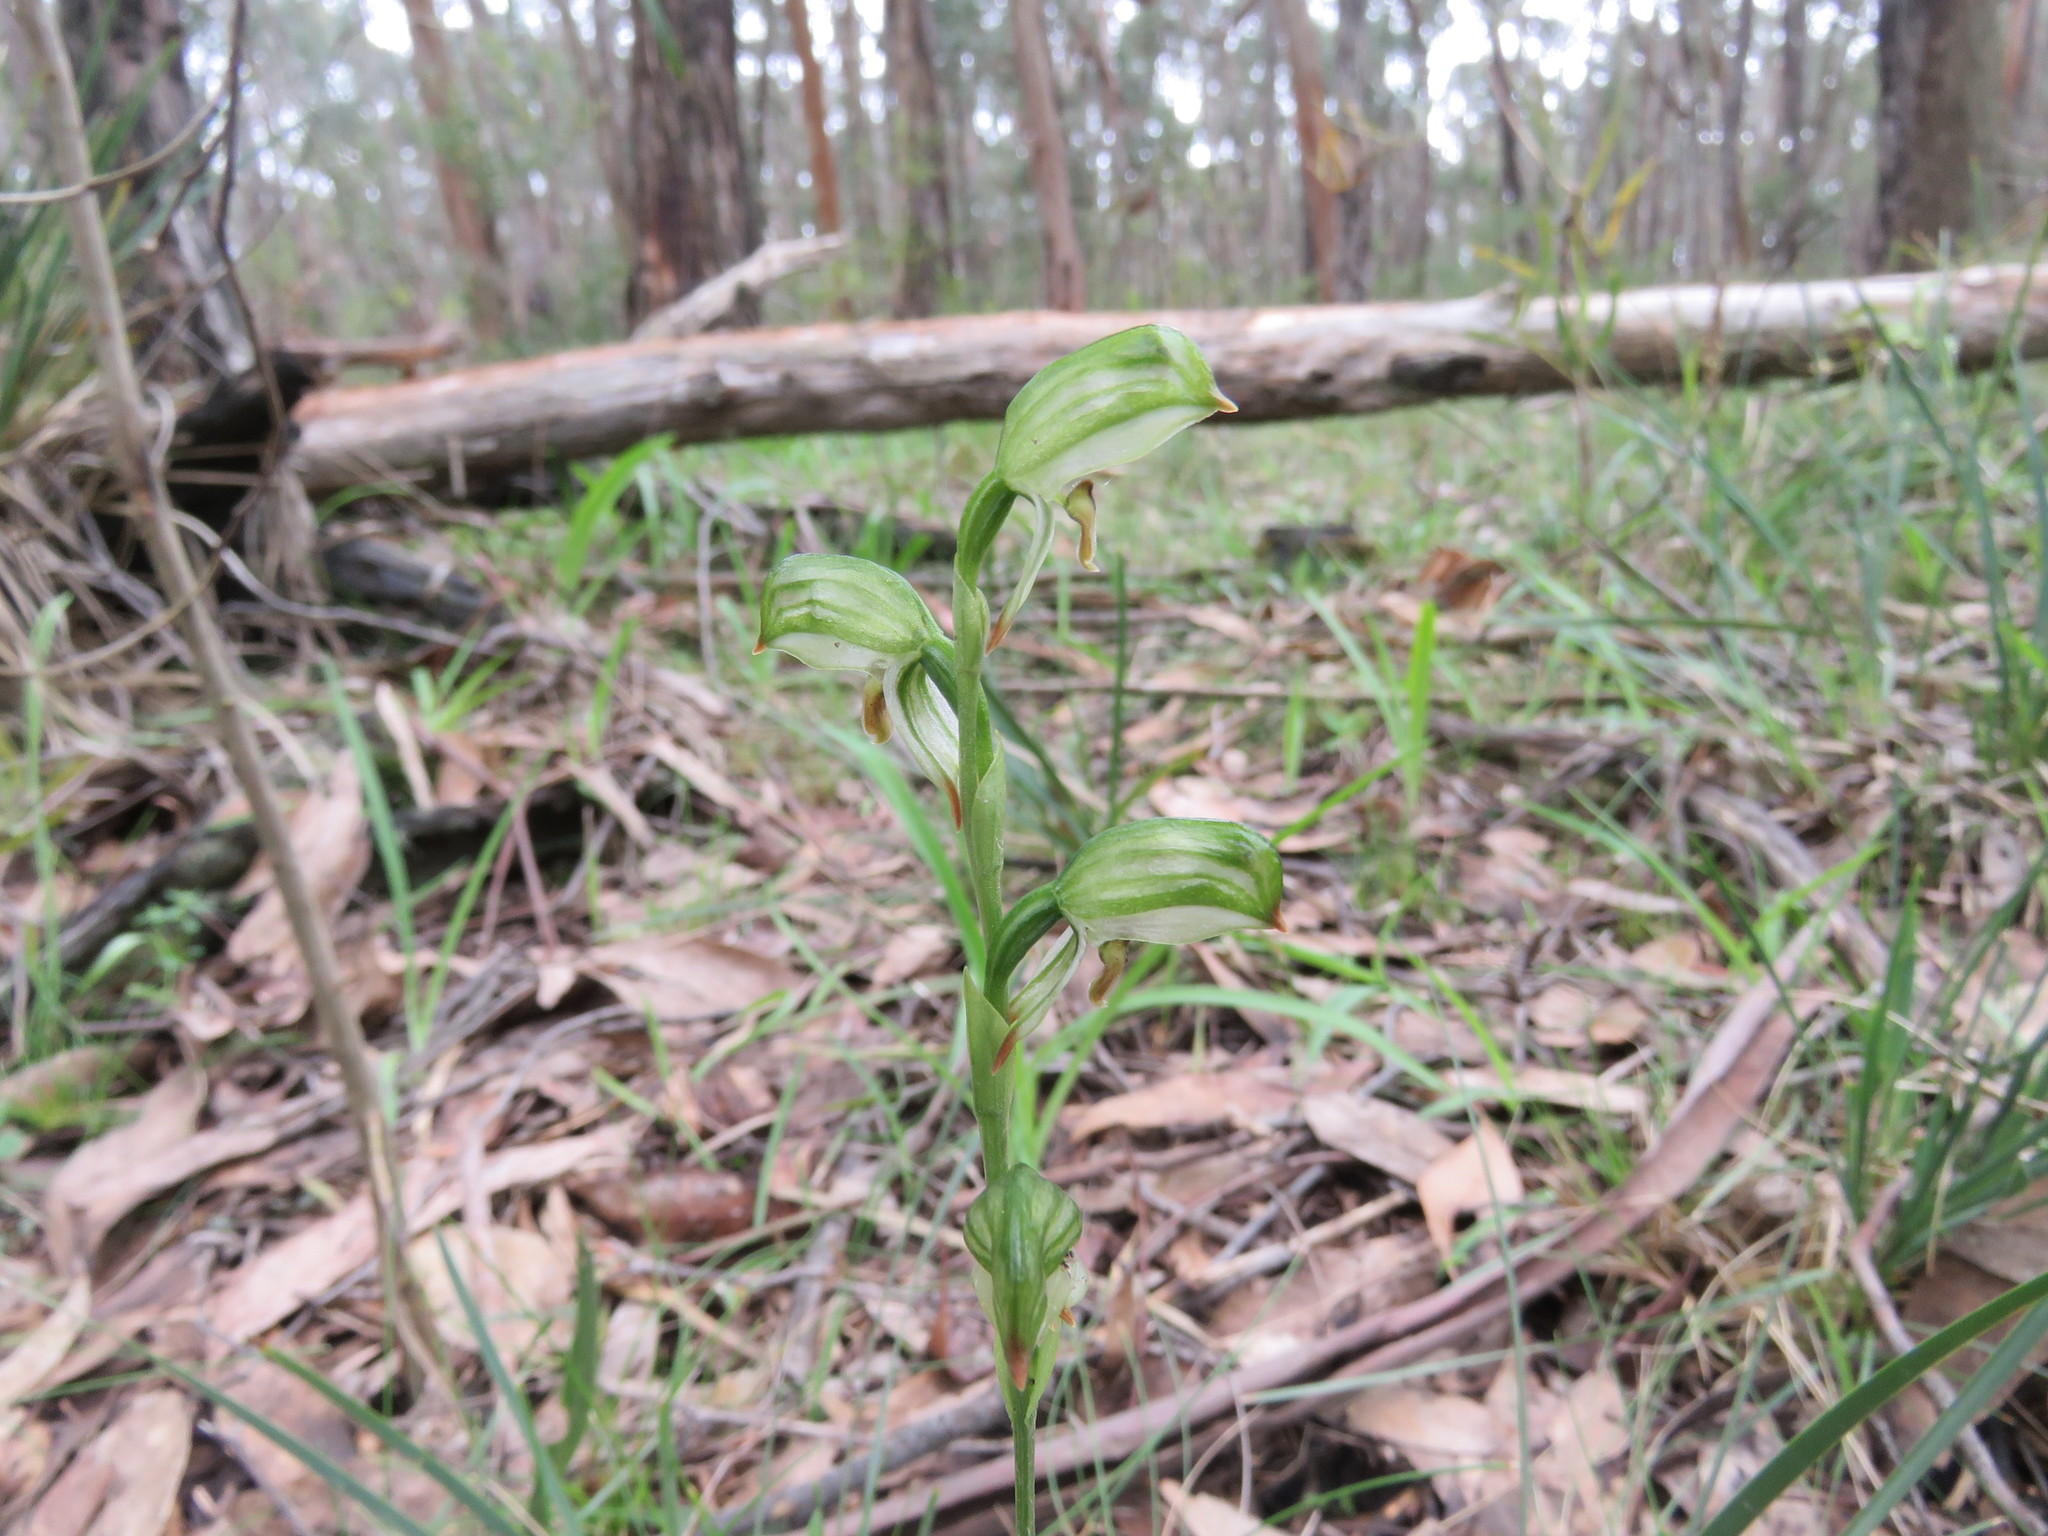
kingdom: Plantae
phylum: Tracheophyta
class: Liliopsida
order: Asparagales
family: Orchidaceae
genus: Pterostylis
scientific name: Pterostylis melagramma
